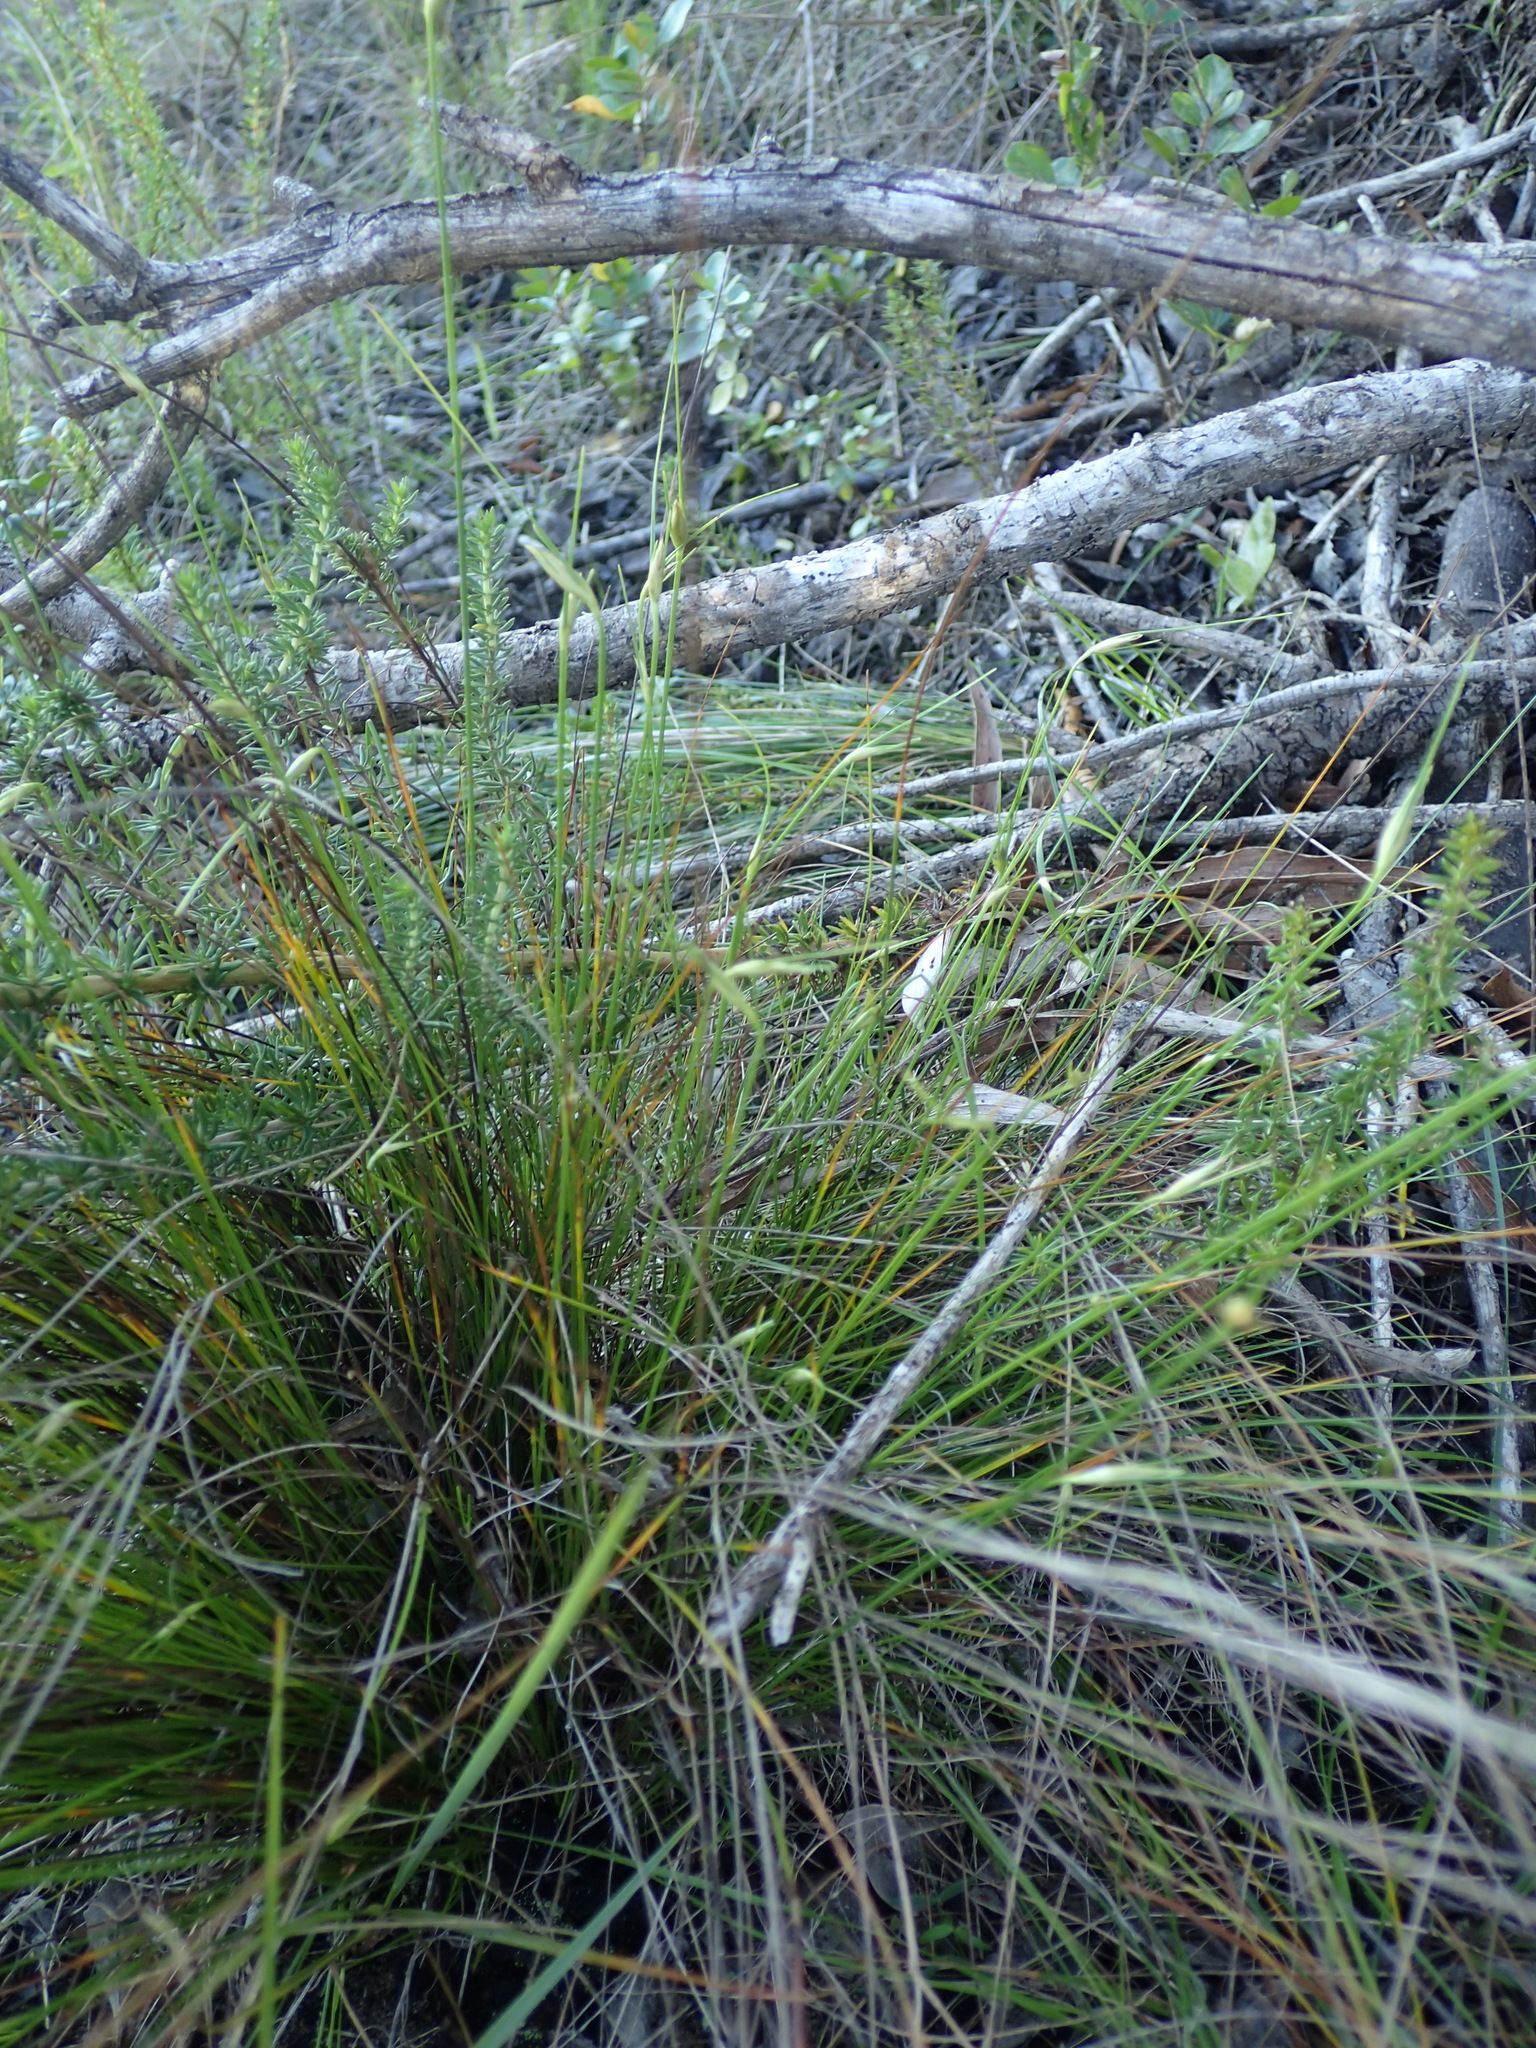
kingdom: Plantae
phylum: Tracheophyta
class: Liliopsida
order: Poales
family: Cyperaceae
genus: Ficinia
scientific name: Ficinia nigrescens
